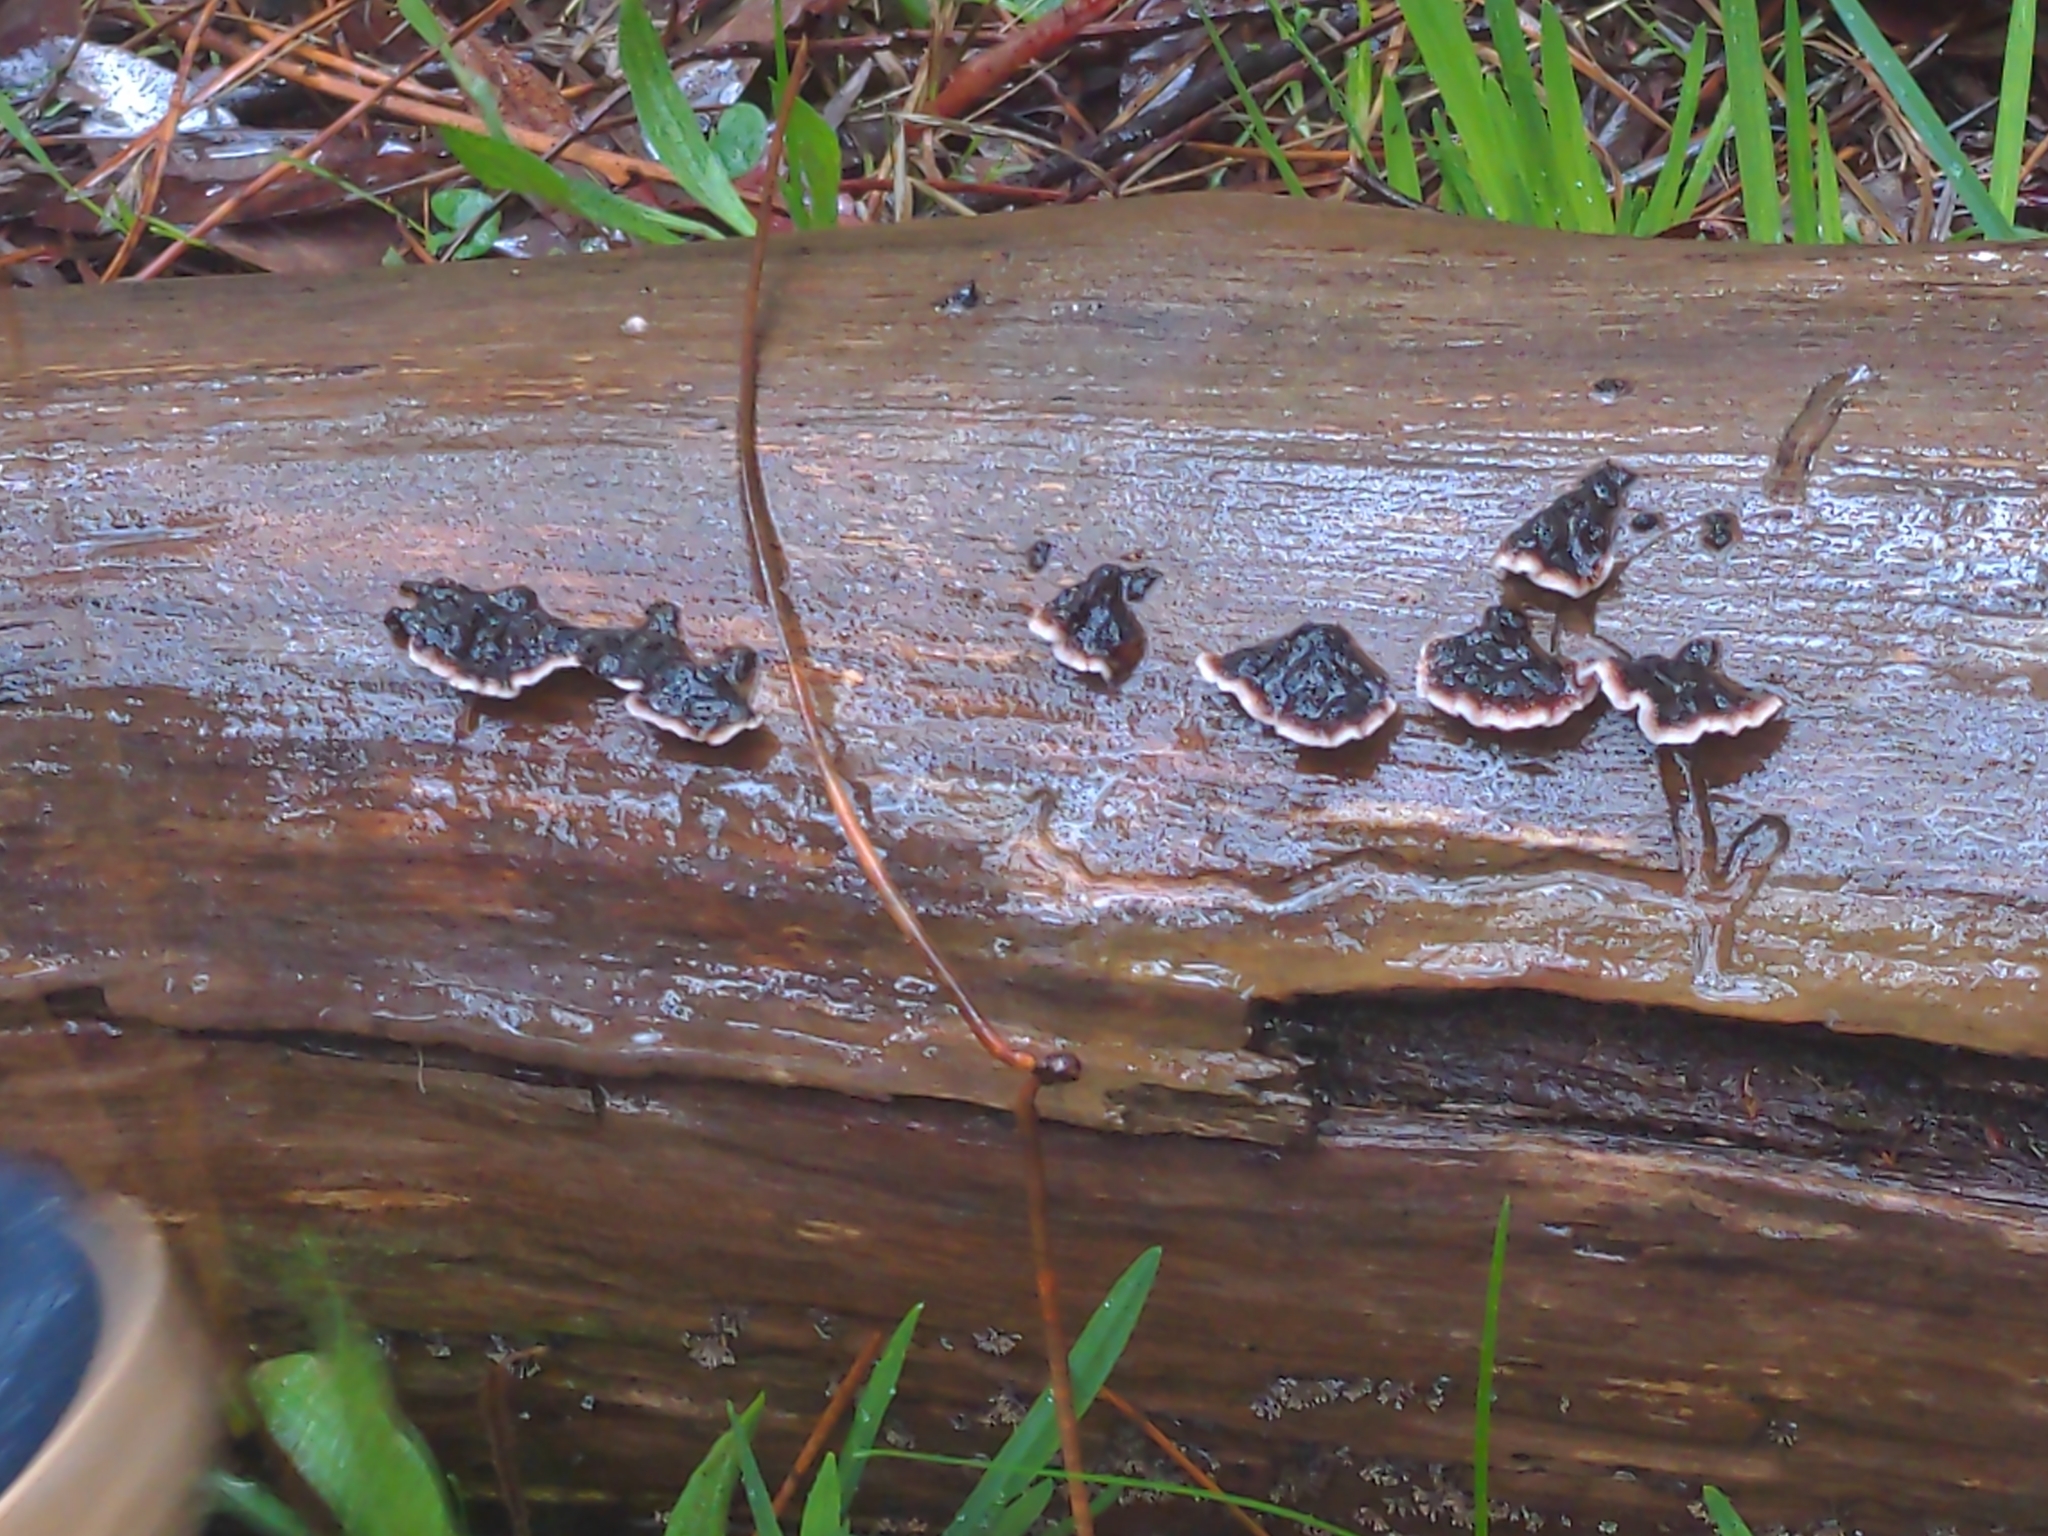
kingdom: Fungi
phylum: Basidiomycota
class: Agaricomycetes
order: Russulales
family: Stereaceae
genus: Xylobolus
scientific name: Xylobolus illudens
